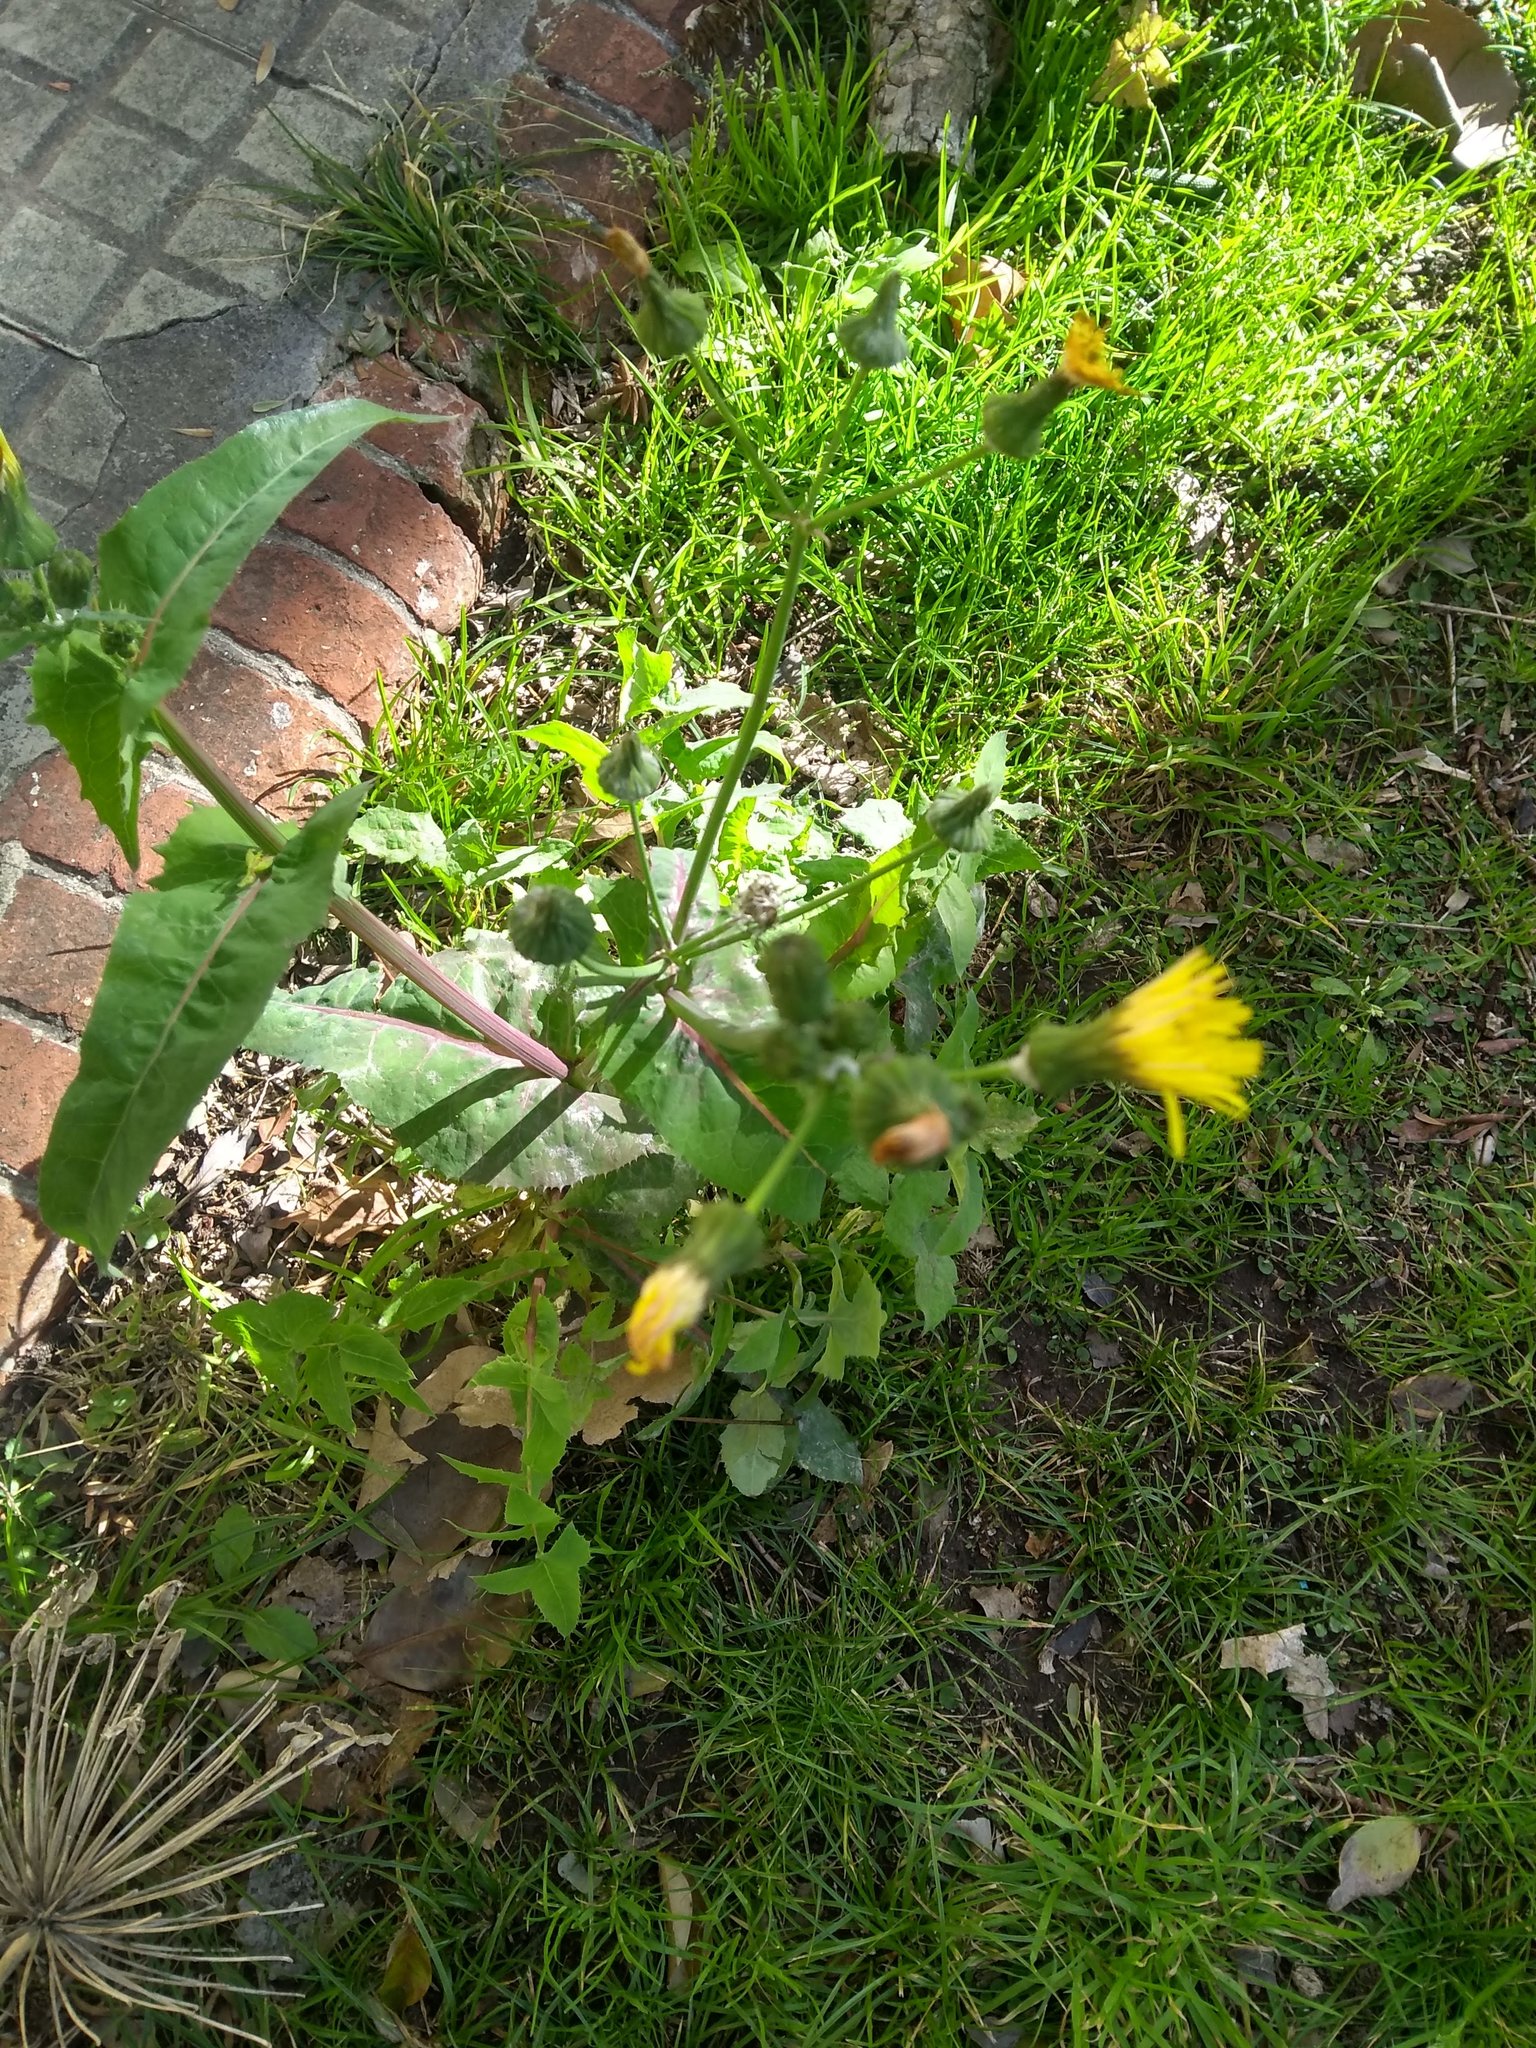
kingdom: Plantae
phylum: Tracheophyta
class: Magnoliopsida
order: Asterales
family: Asteraceae
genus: Sonchus
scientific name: Sonchus oleraceus
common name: Common sowthistle
